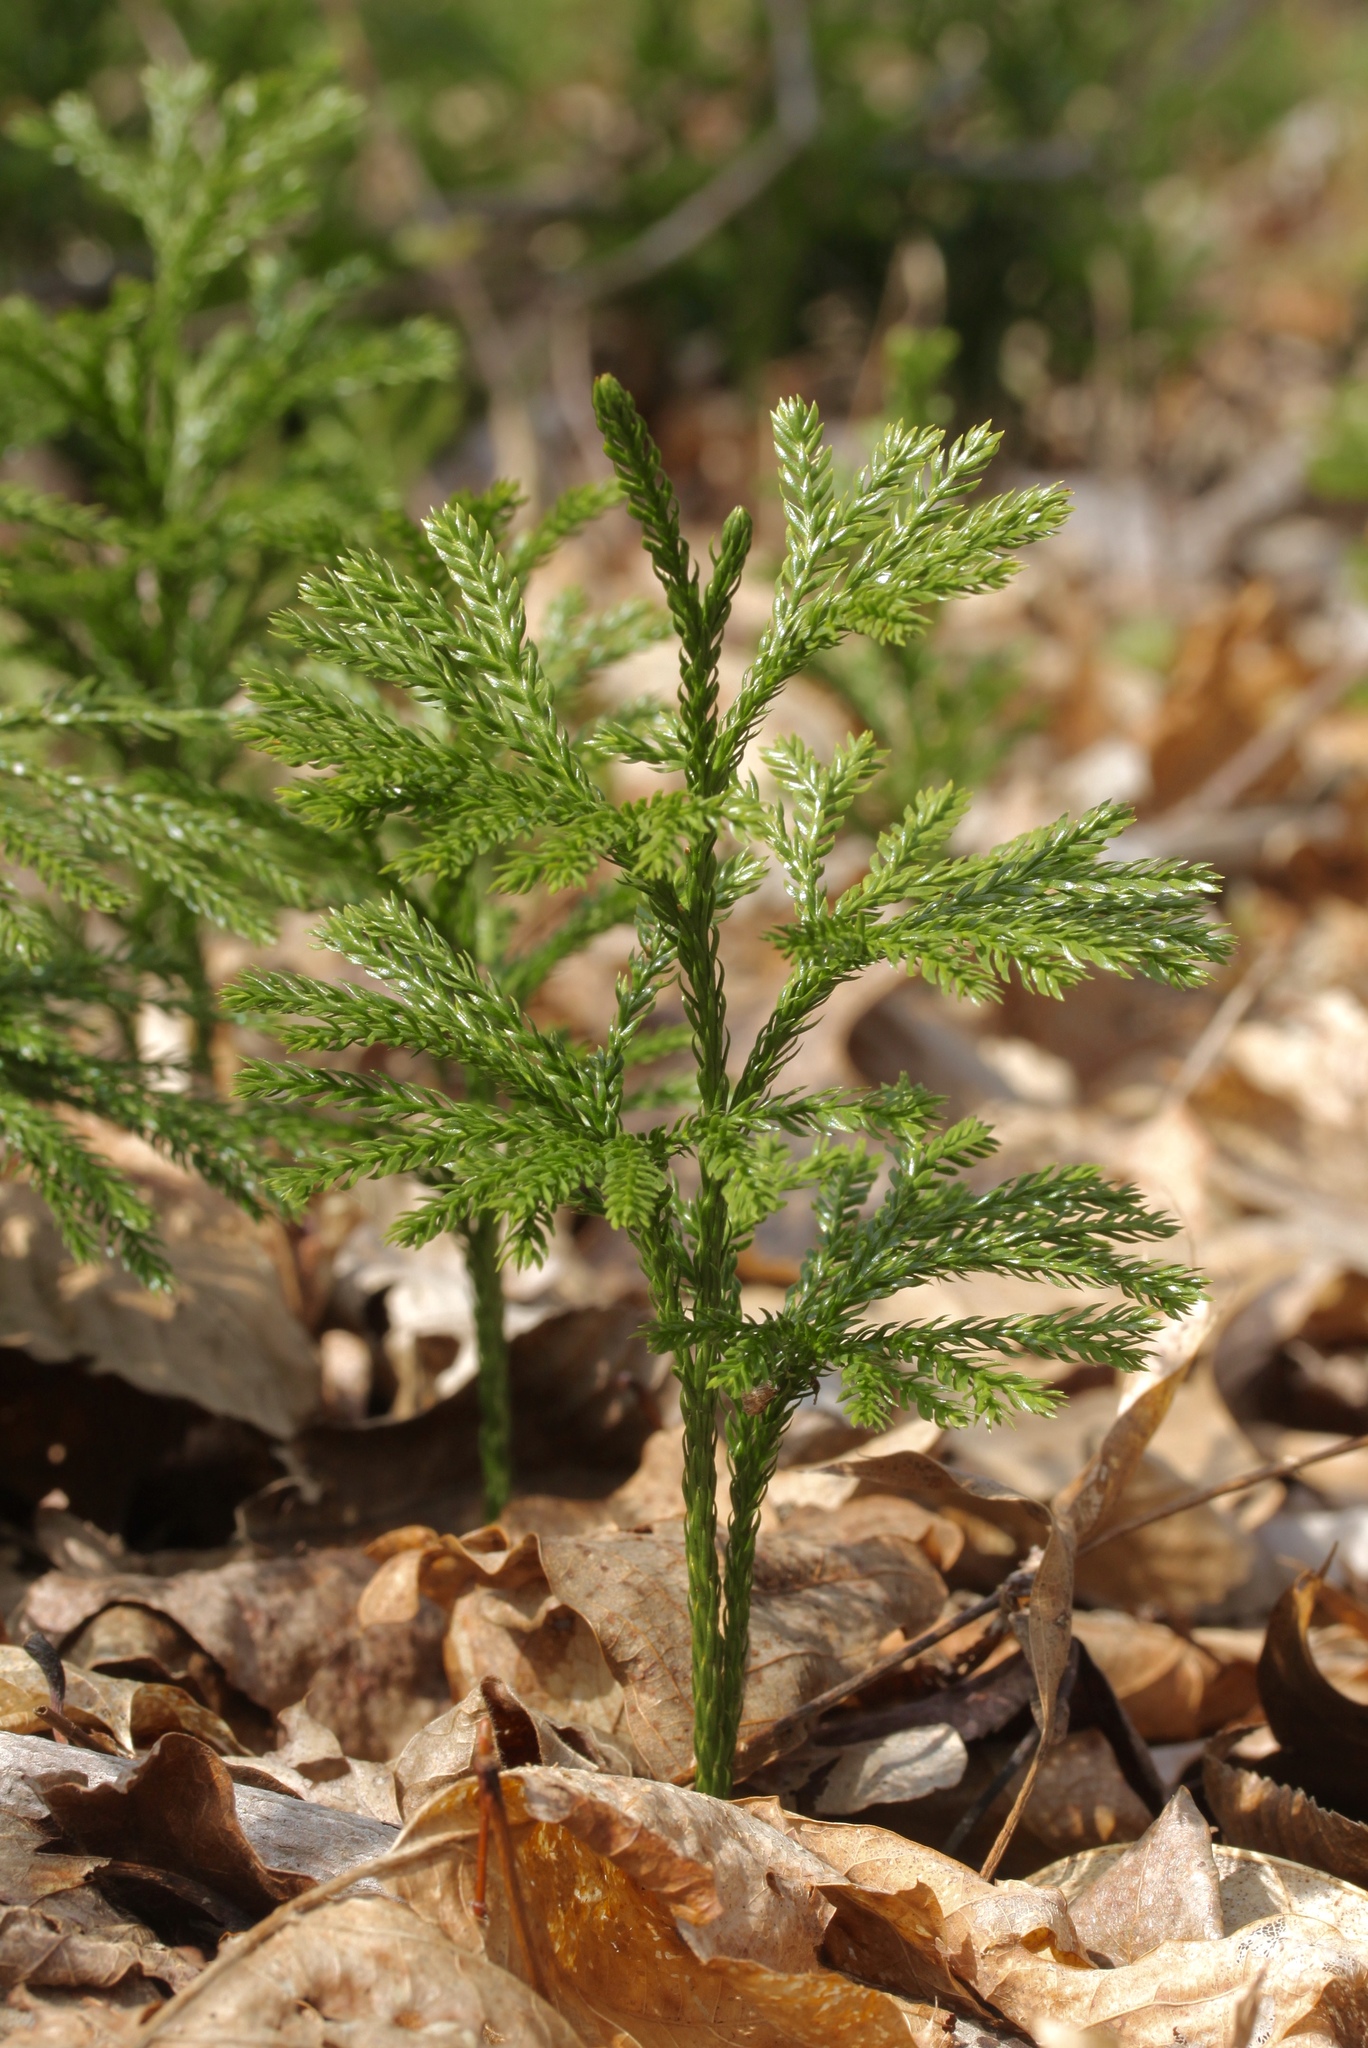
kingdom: Plantae
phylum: Tracheophyta
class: Lycopodiopsida
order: Lycopodiales
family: Lycopodiaceae
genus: Dendrolycopodium
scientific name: Dendrolycopodium obscurum
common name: Common ground-pine
